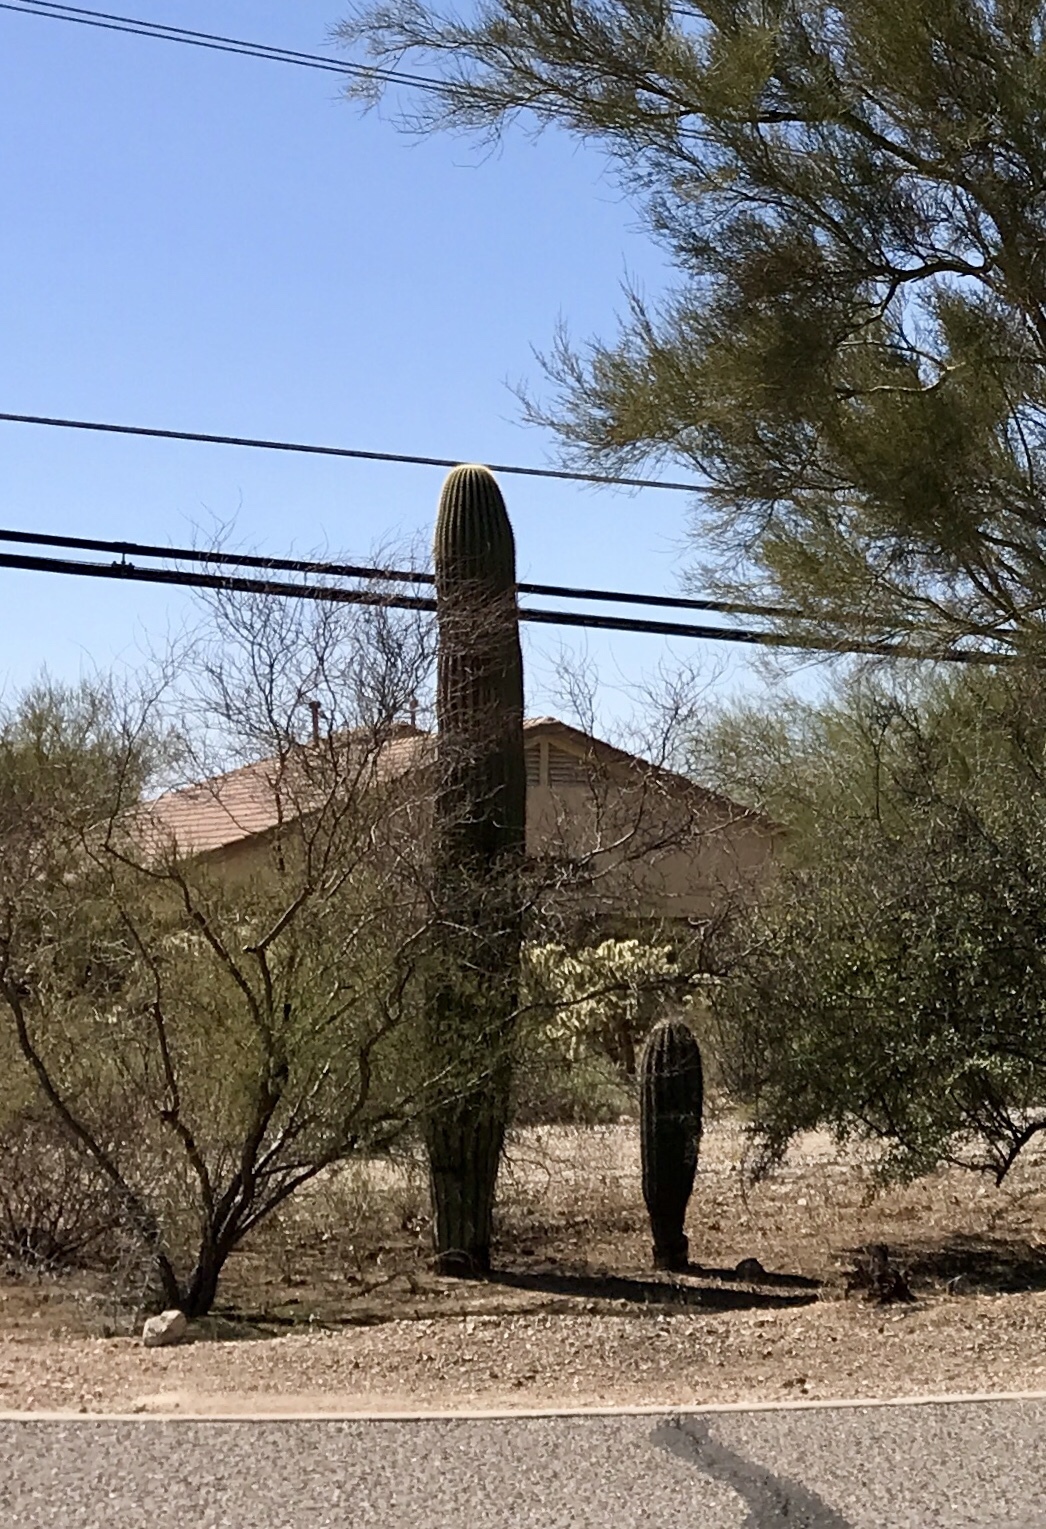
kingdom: Plantae
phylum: Tracheophyta
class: Magnoliopsida
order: Caryophyllales
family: Cactaceae
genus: Carnegiea
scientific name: Carnegiea gigantea
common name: Saguaro
